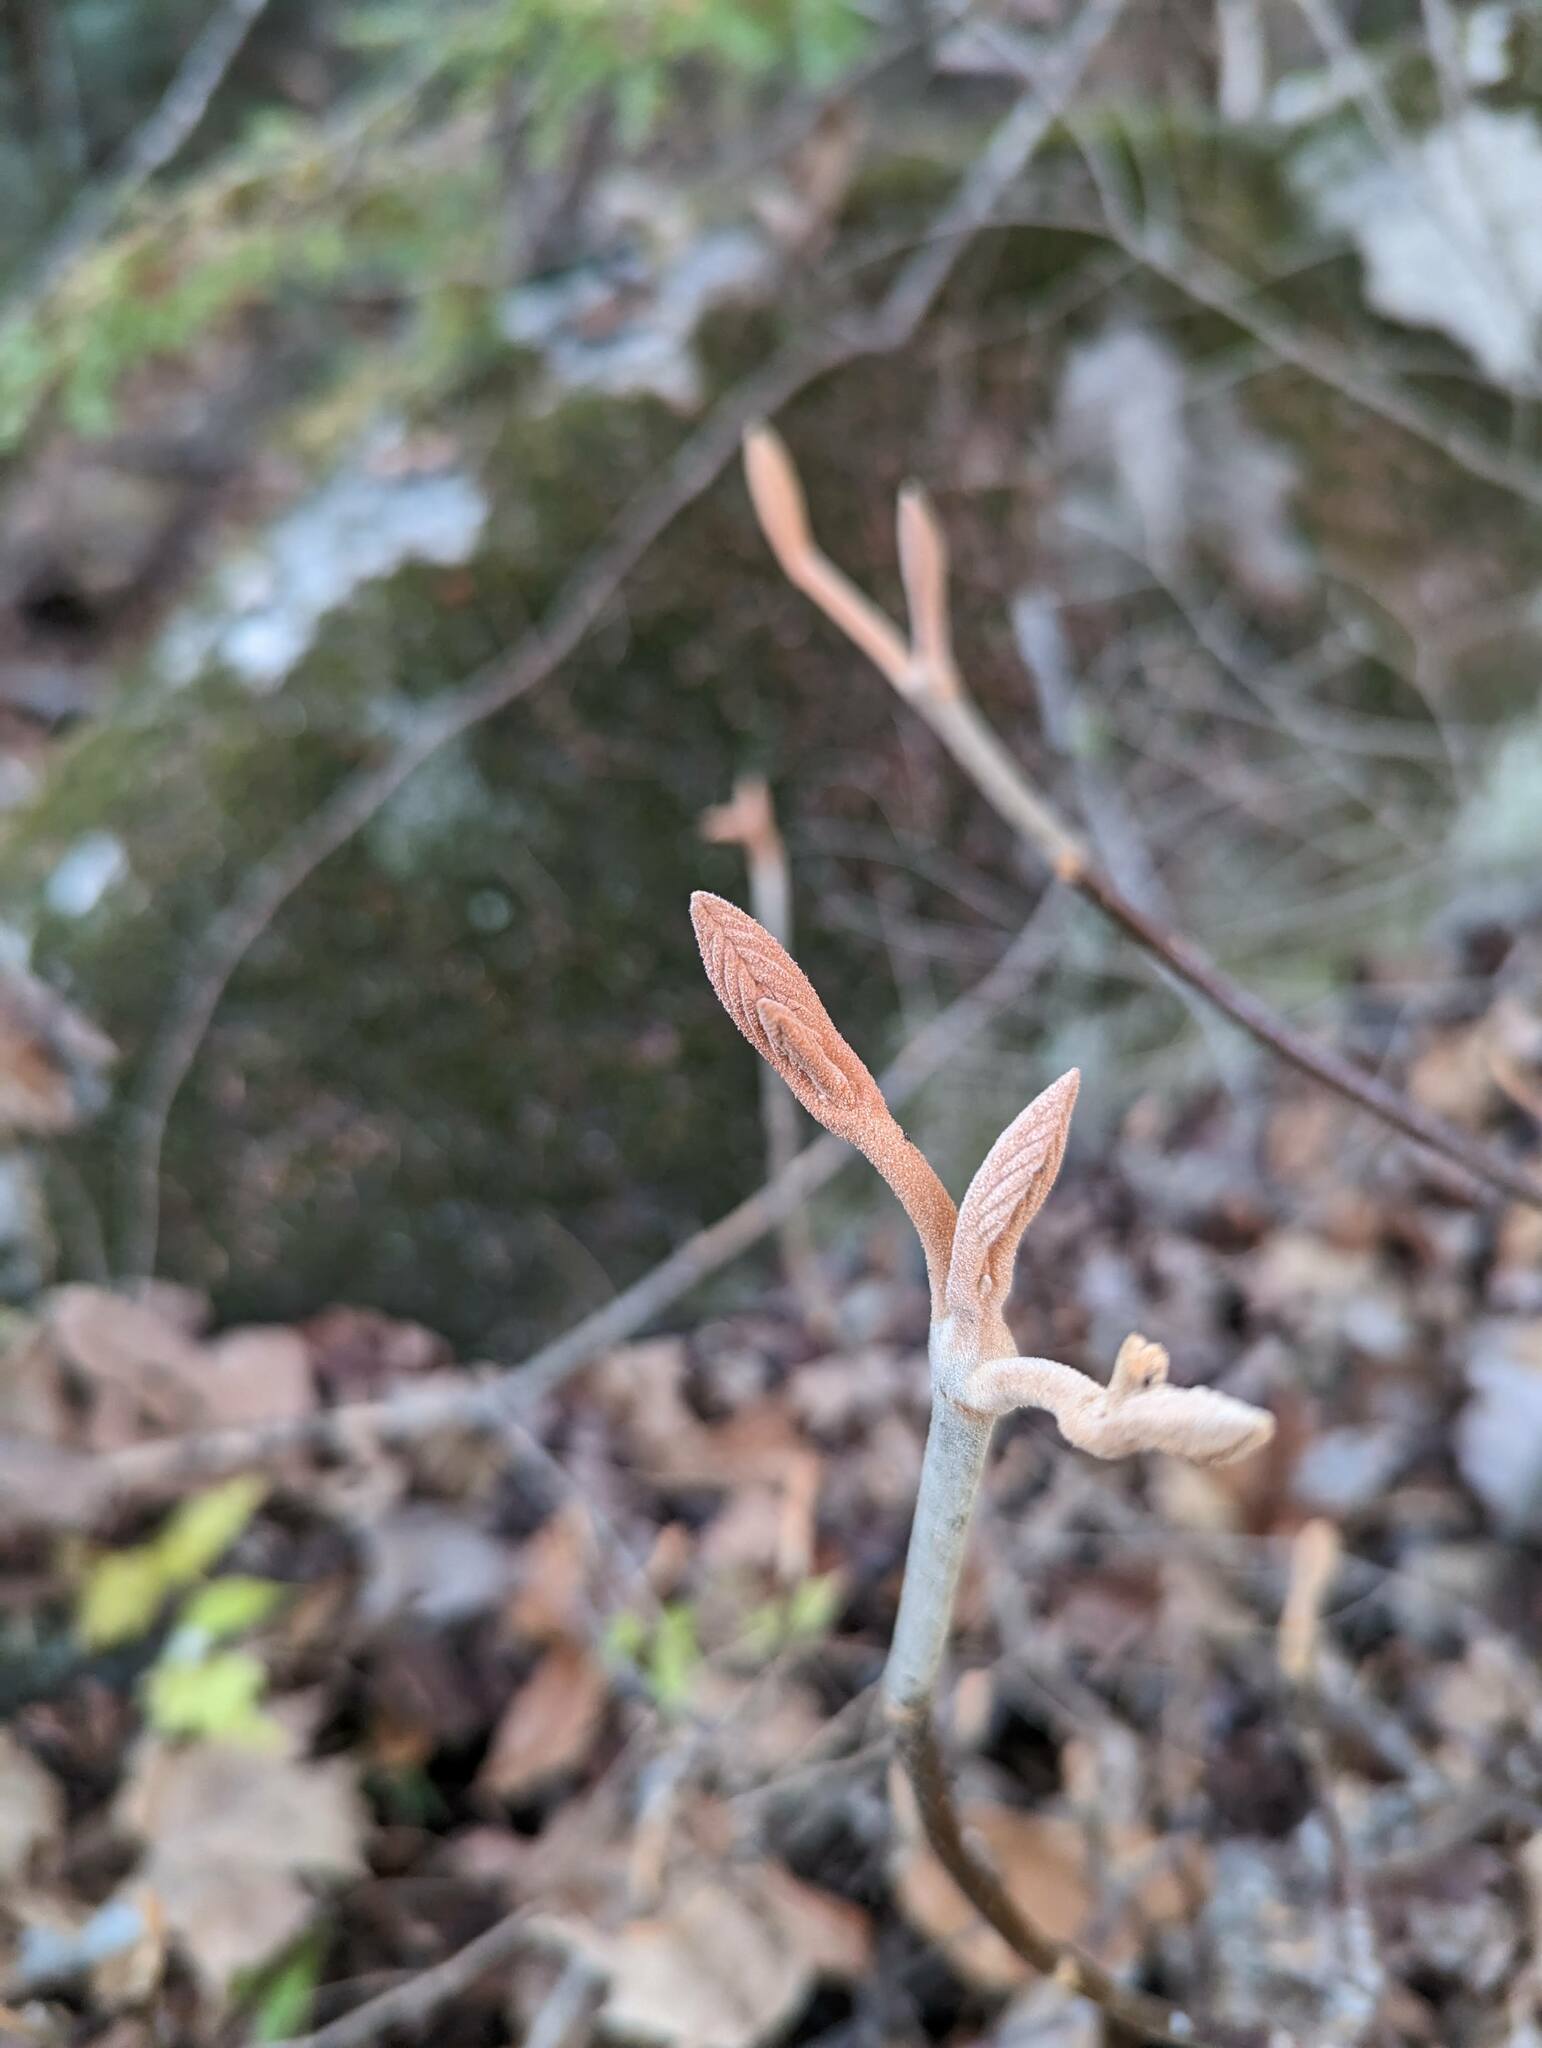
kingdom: Plantae
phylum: Tracheophyta
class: Magnoliopsida
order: Dipsacales
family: Viburnaceae
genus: Viburnum
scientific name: Viburnum lantanoides
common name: Hobblebush
